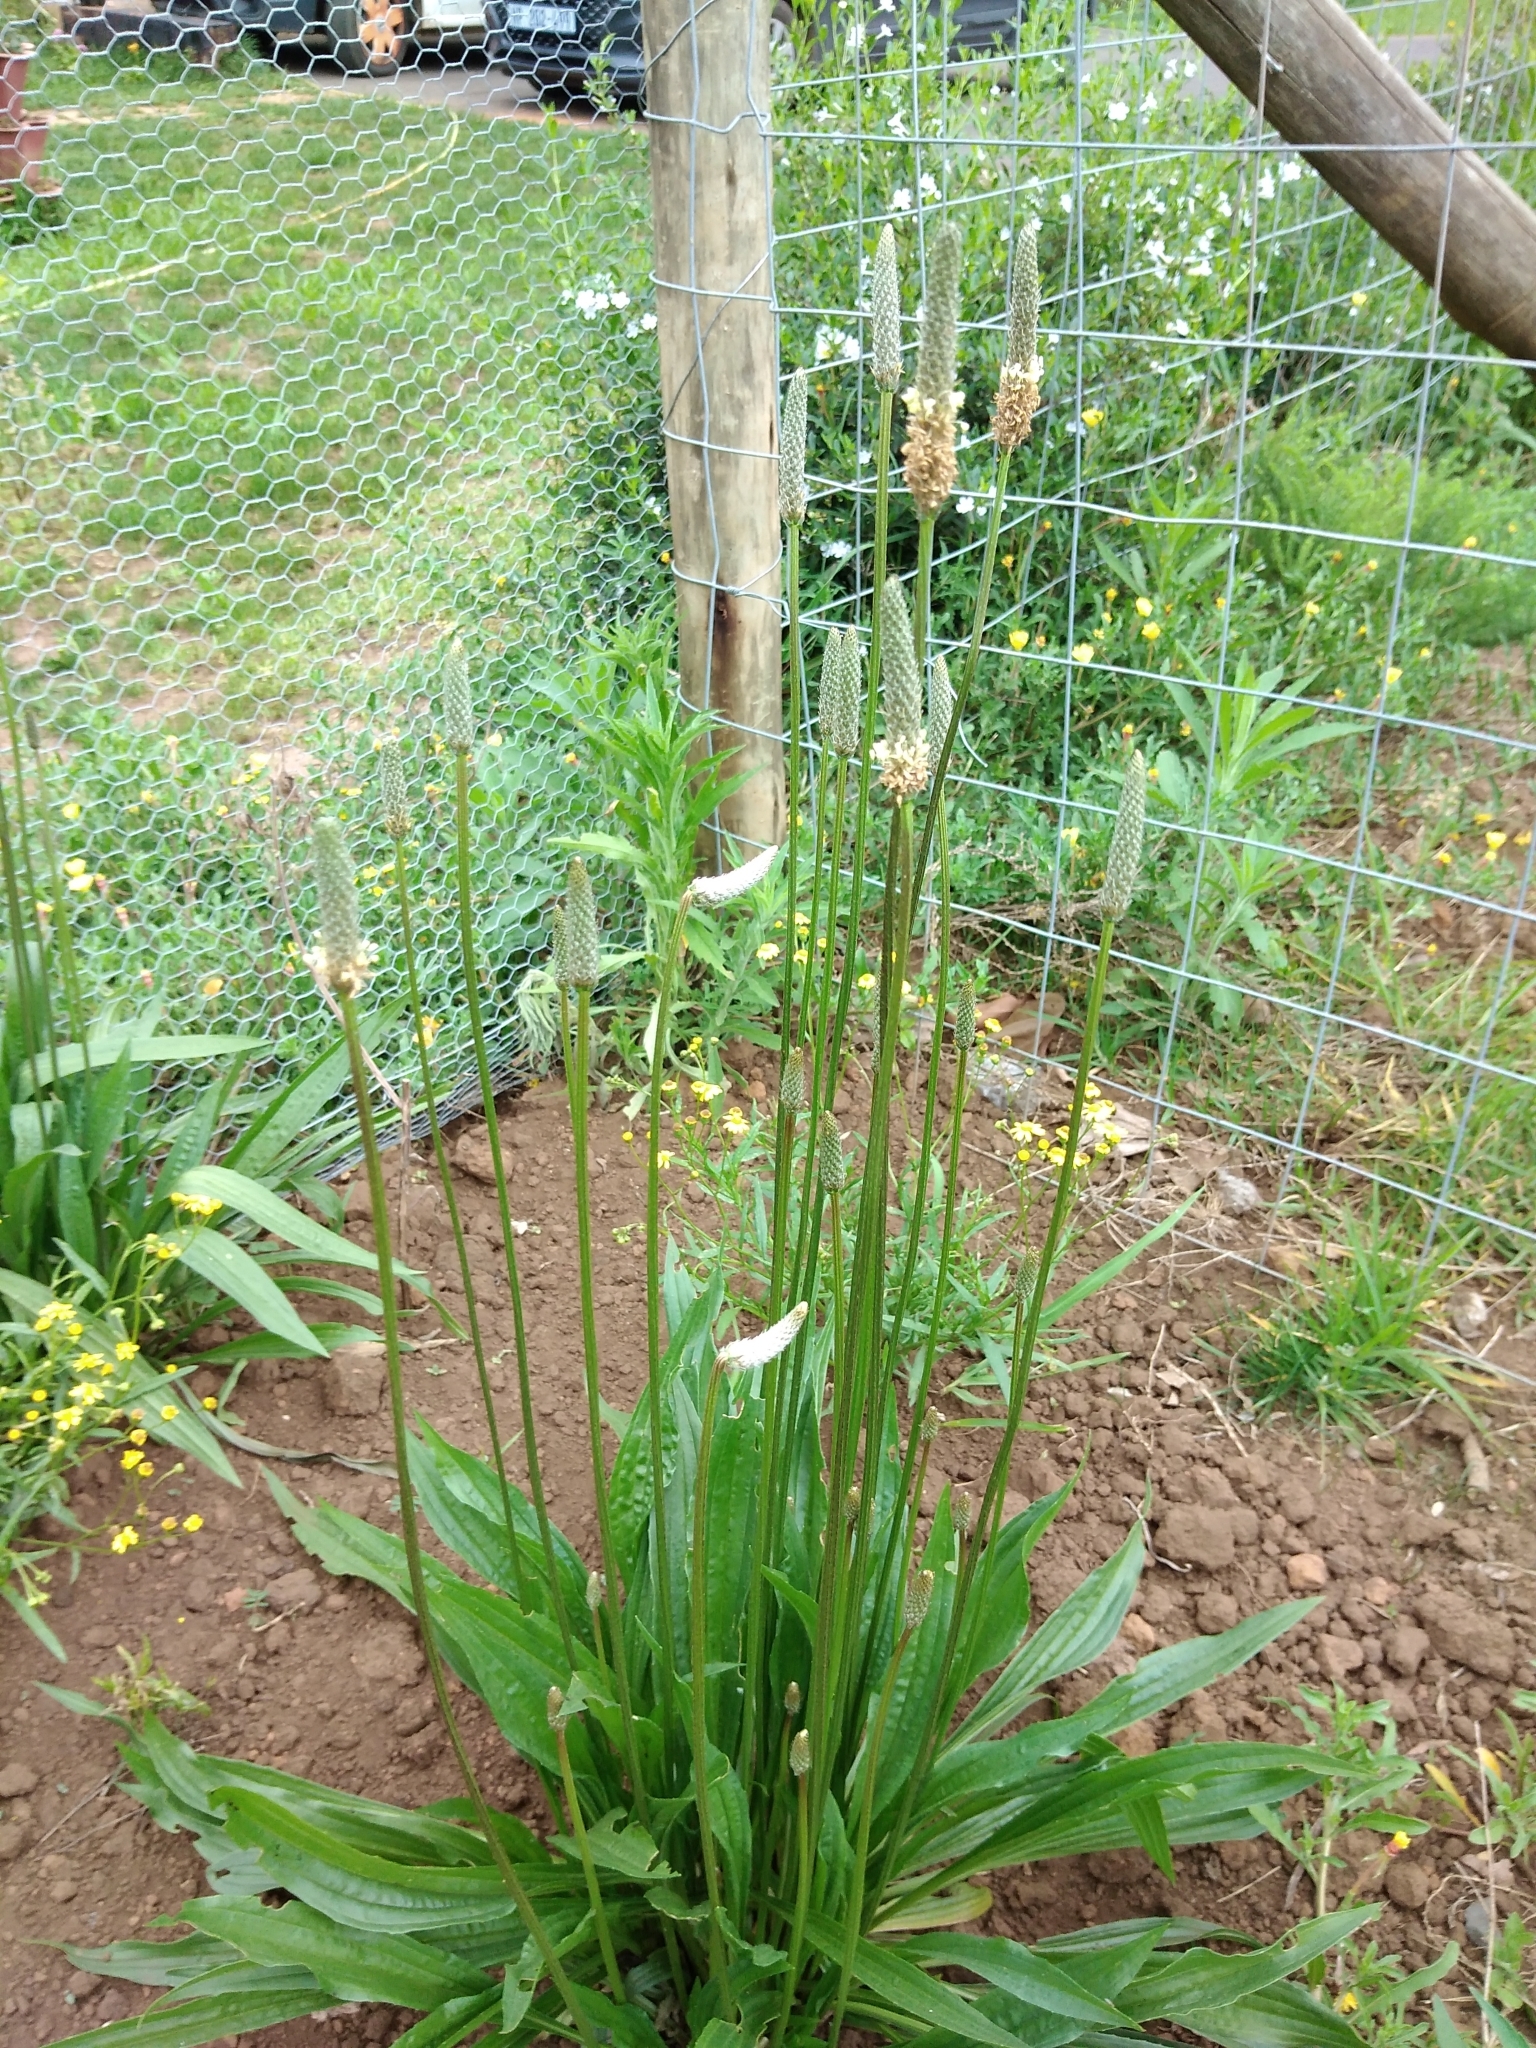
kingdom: Plantae
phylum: Tracheophyta
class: Magnoliopsida
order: Lamiales
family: Plantaginaceae
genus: Plantago
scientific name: Plantago lanceolata
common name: Ribwort plantain
